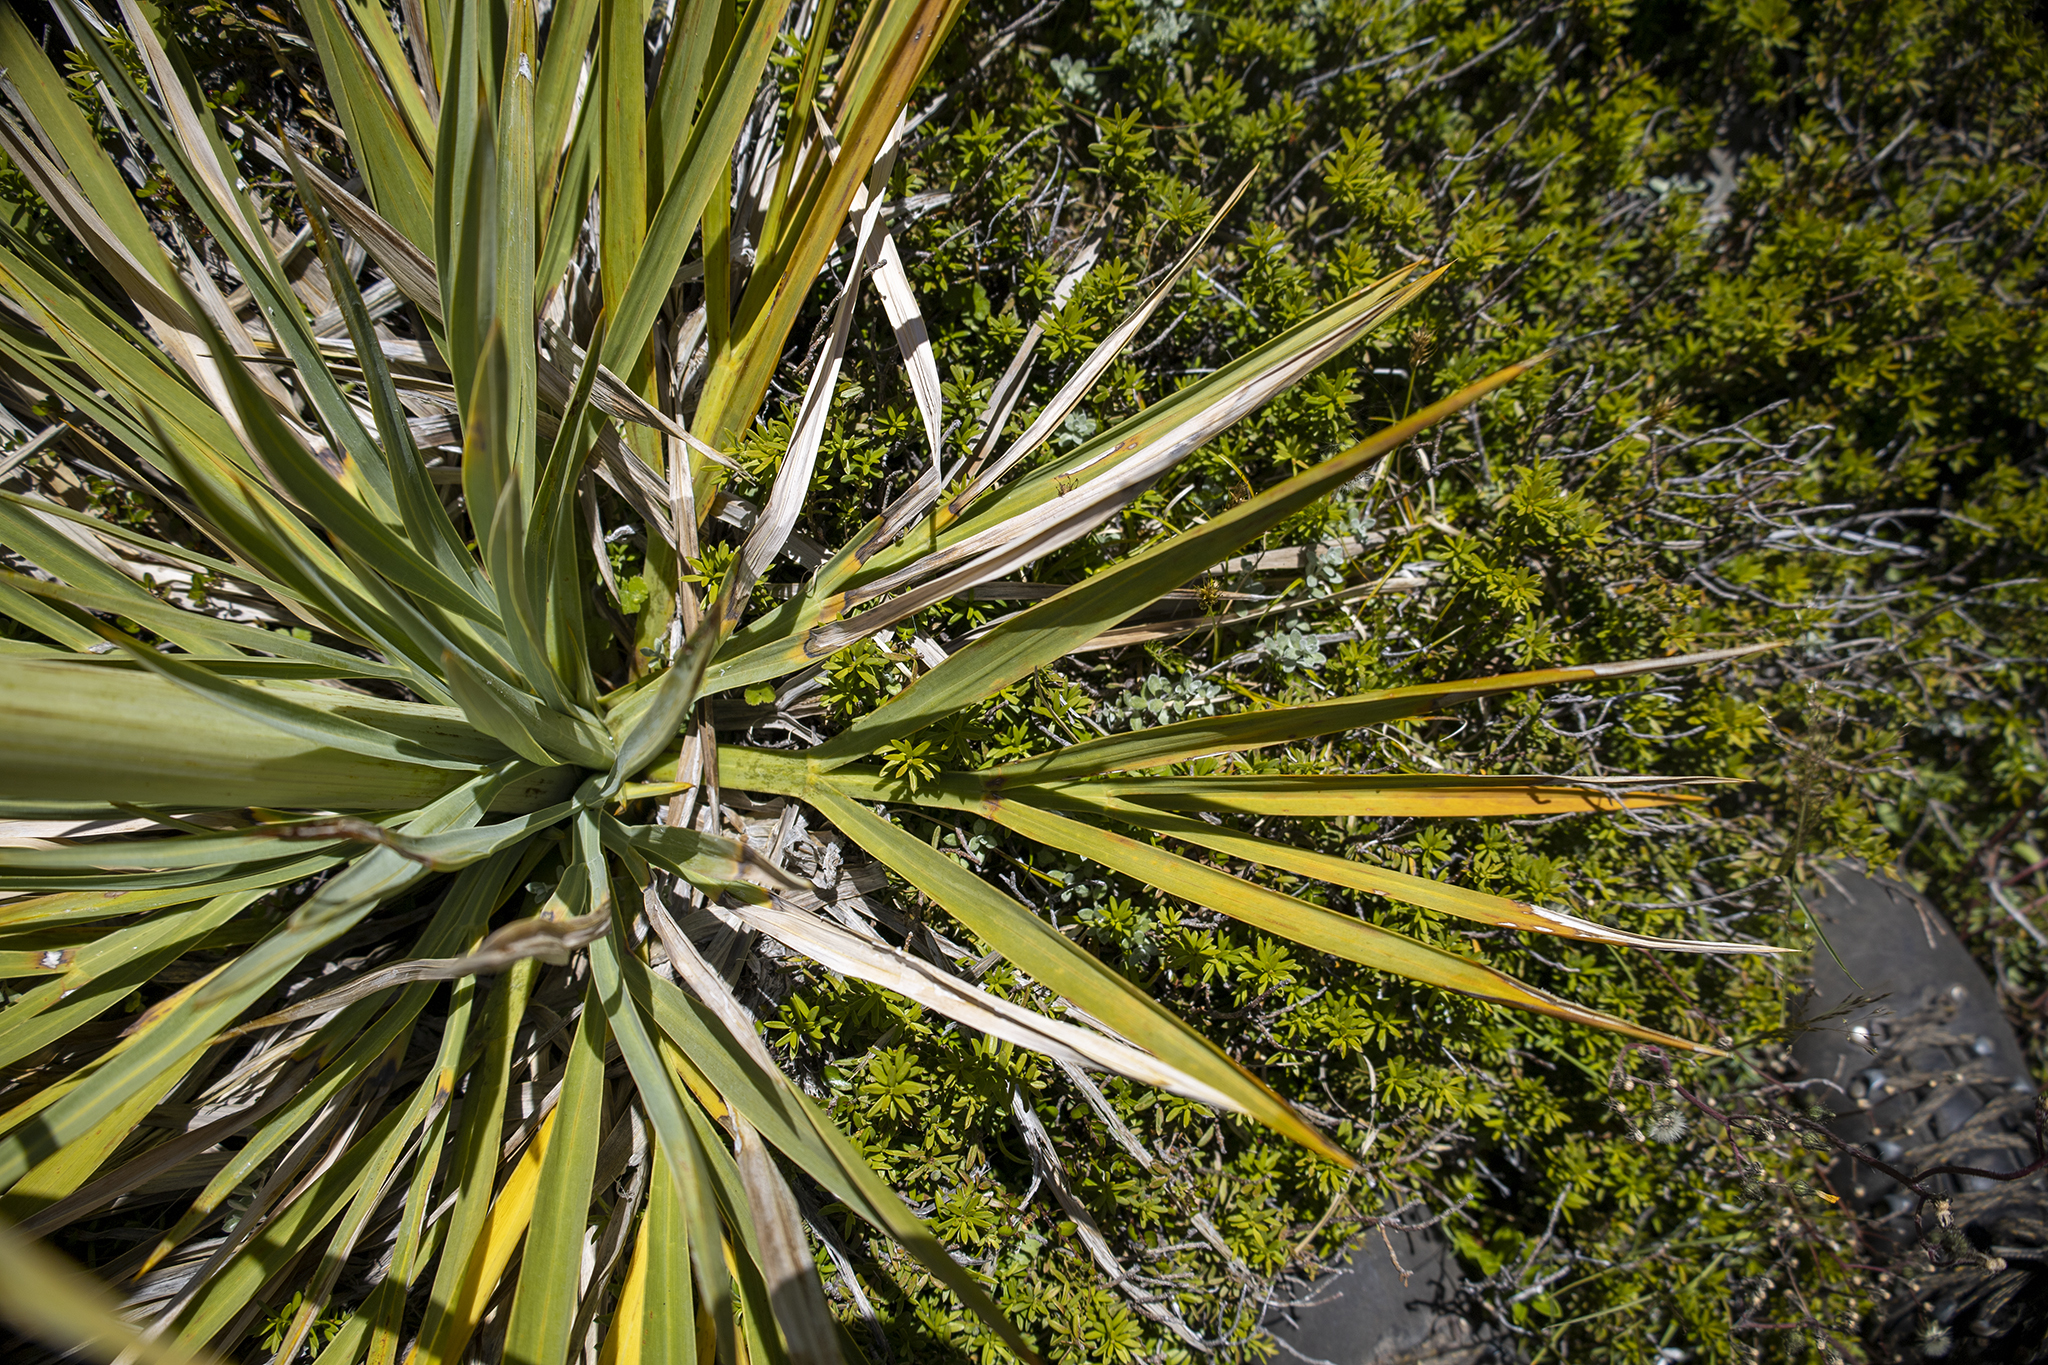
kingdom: Plantae
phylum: Tracheophyta
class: Magnoliopsida
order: Apiales
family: Apiaceae
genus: Aciphylla
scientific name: Aciphylla scott-thomsonii
